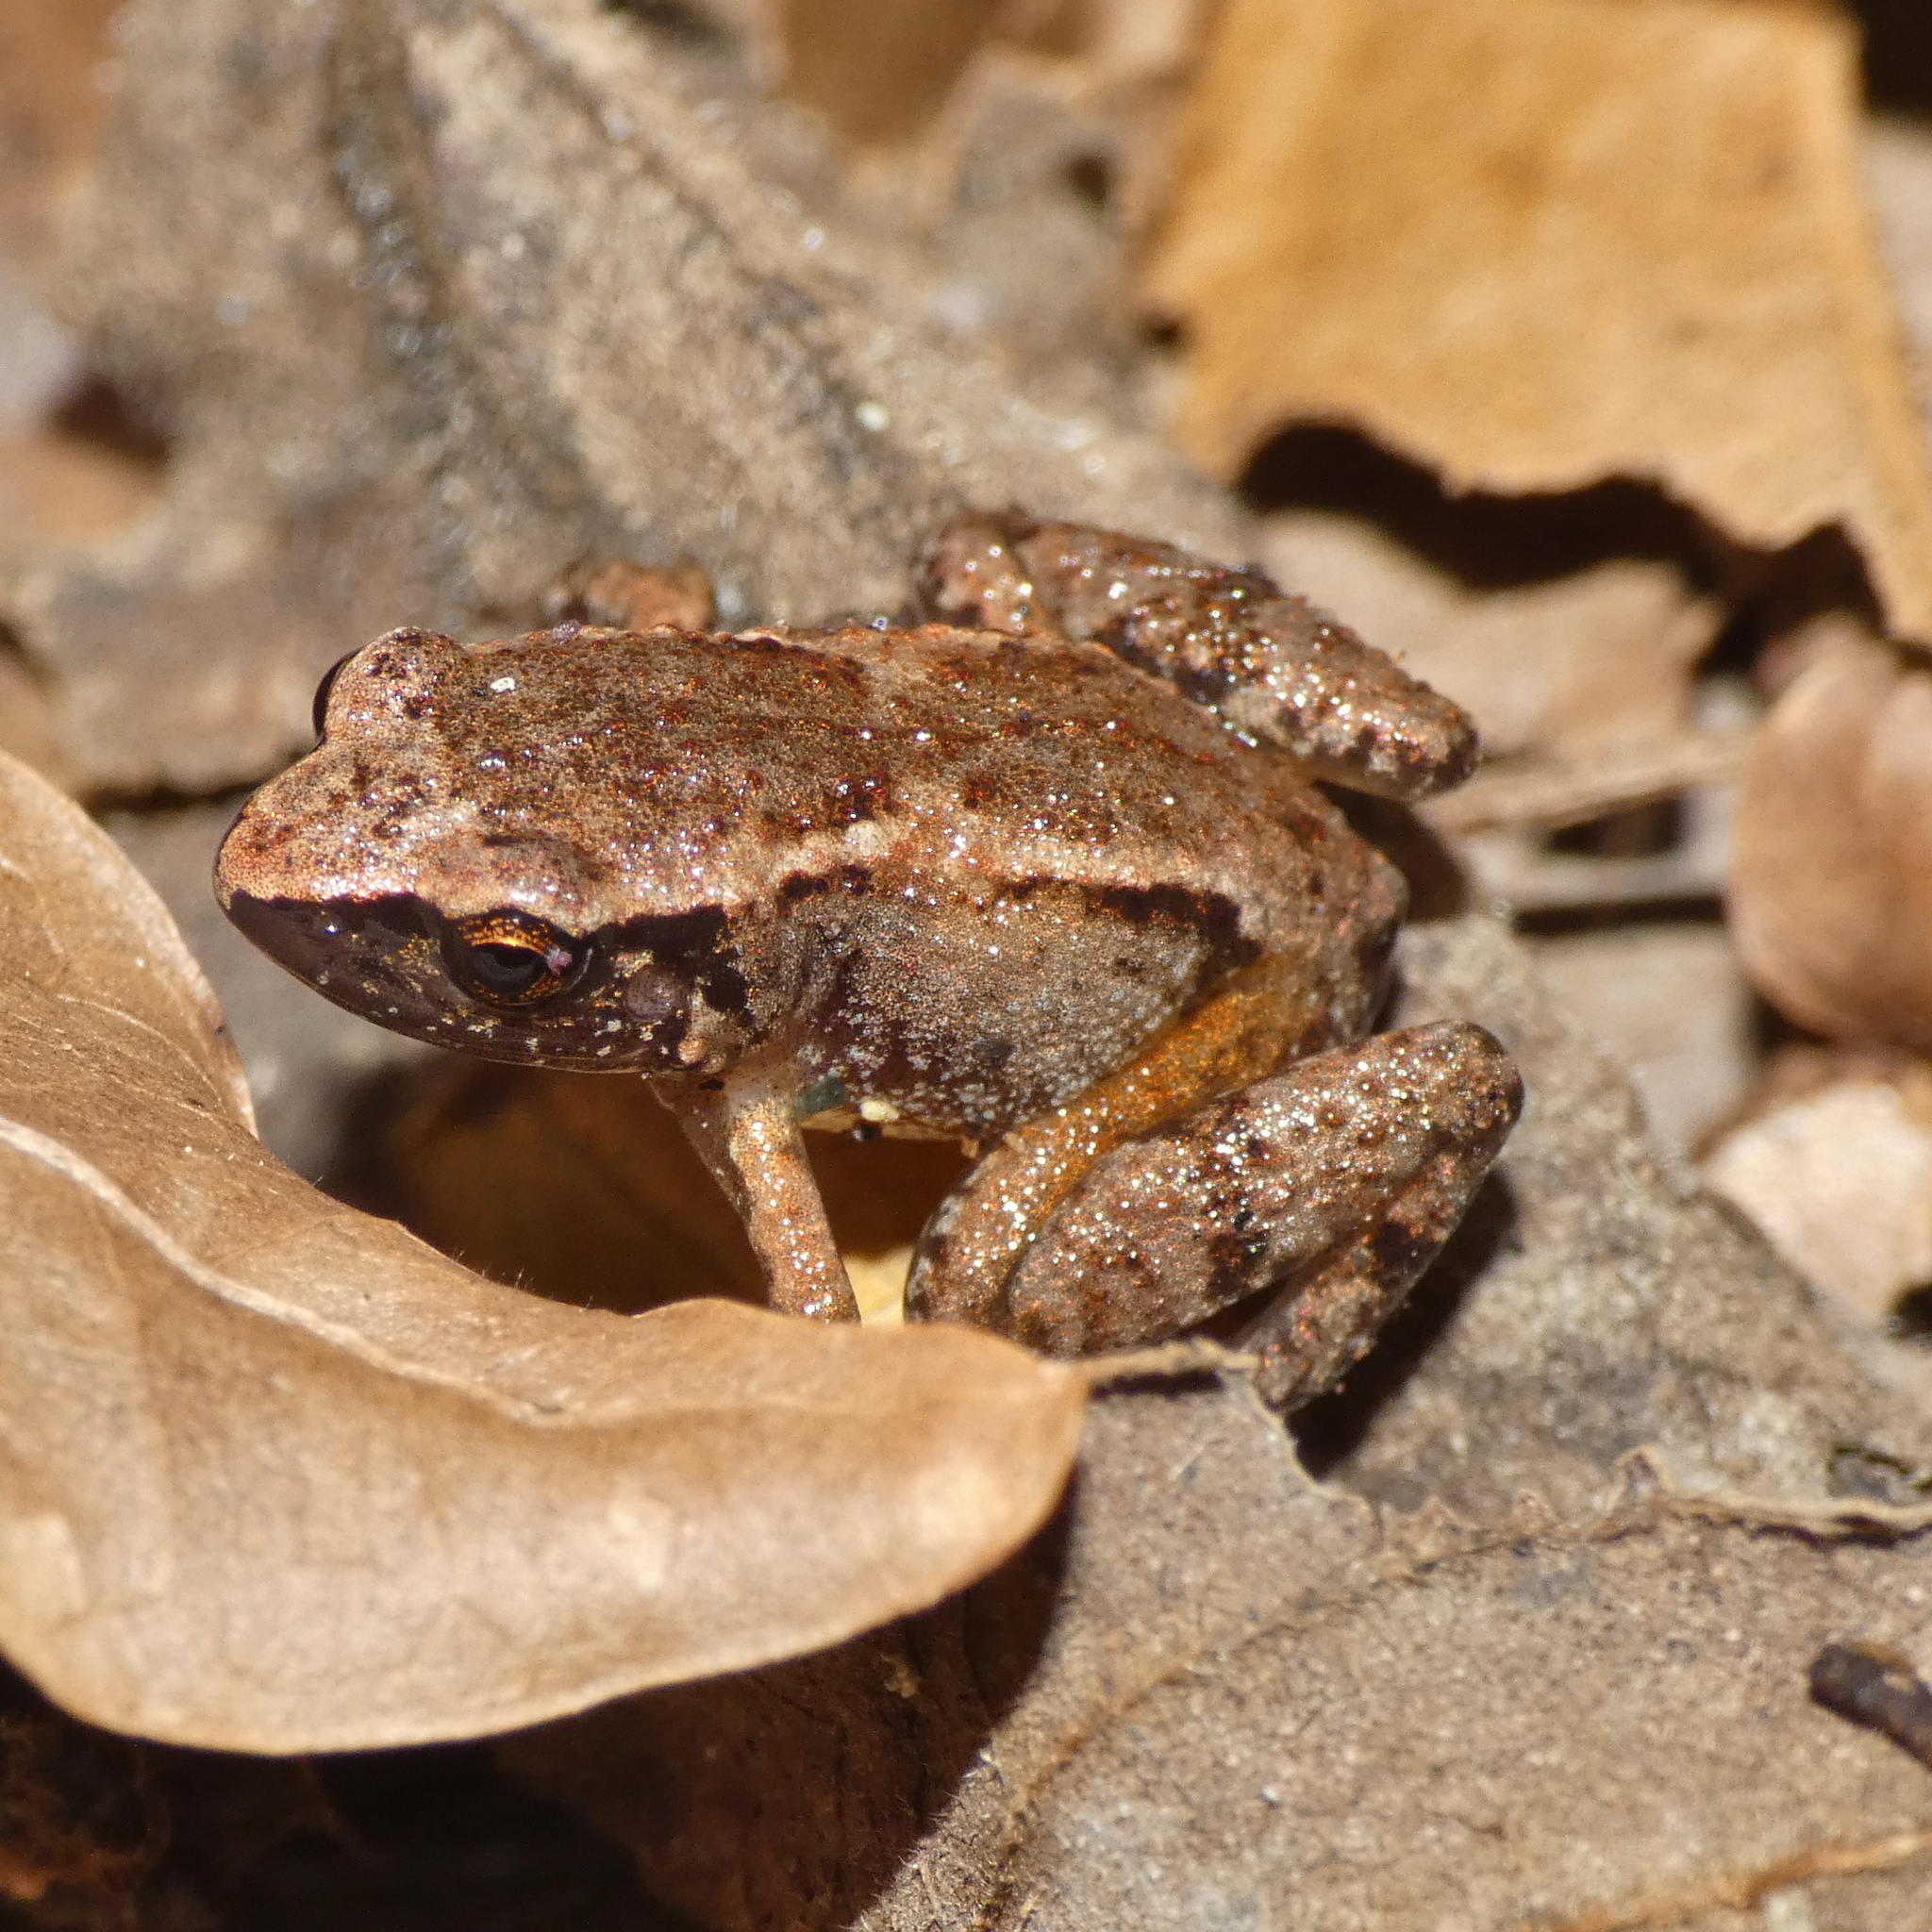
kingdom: Animalia
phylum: Chordata
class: Amphibia
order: Anura
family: Arthroleptidae
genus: Arthroleptis
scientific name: Arthroleptis xenodactyloides
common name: Chirinda screeching frog
